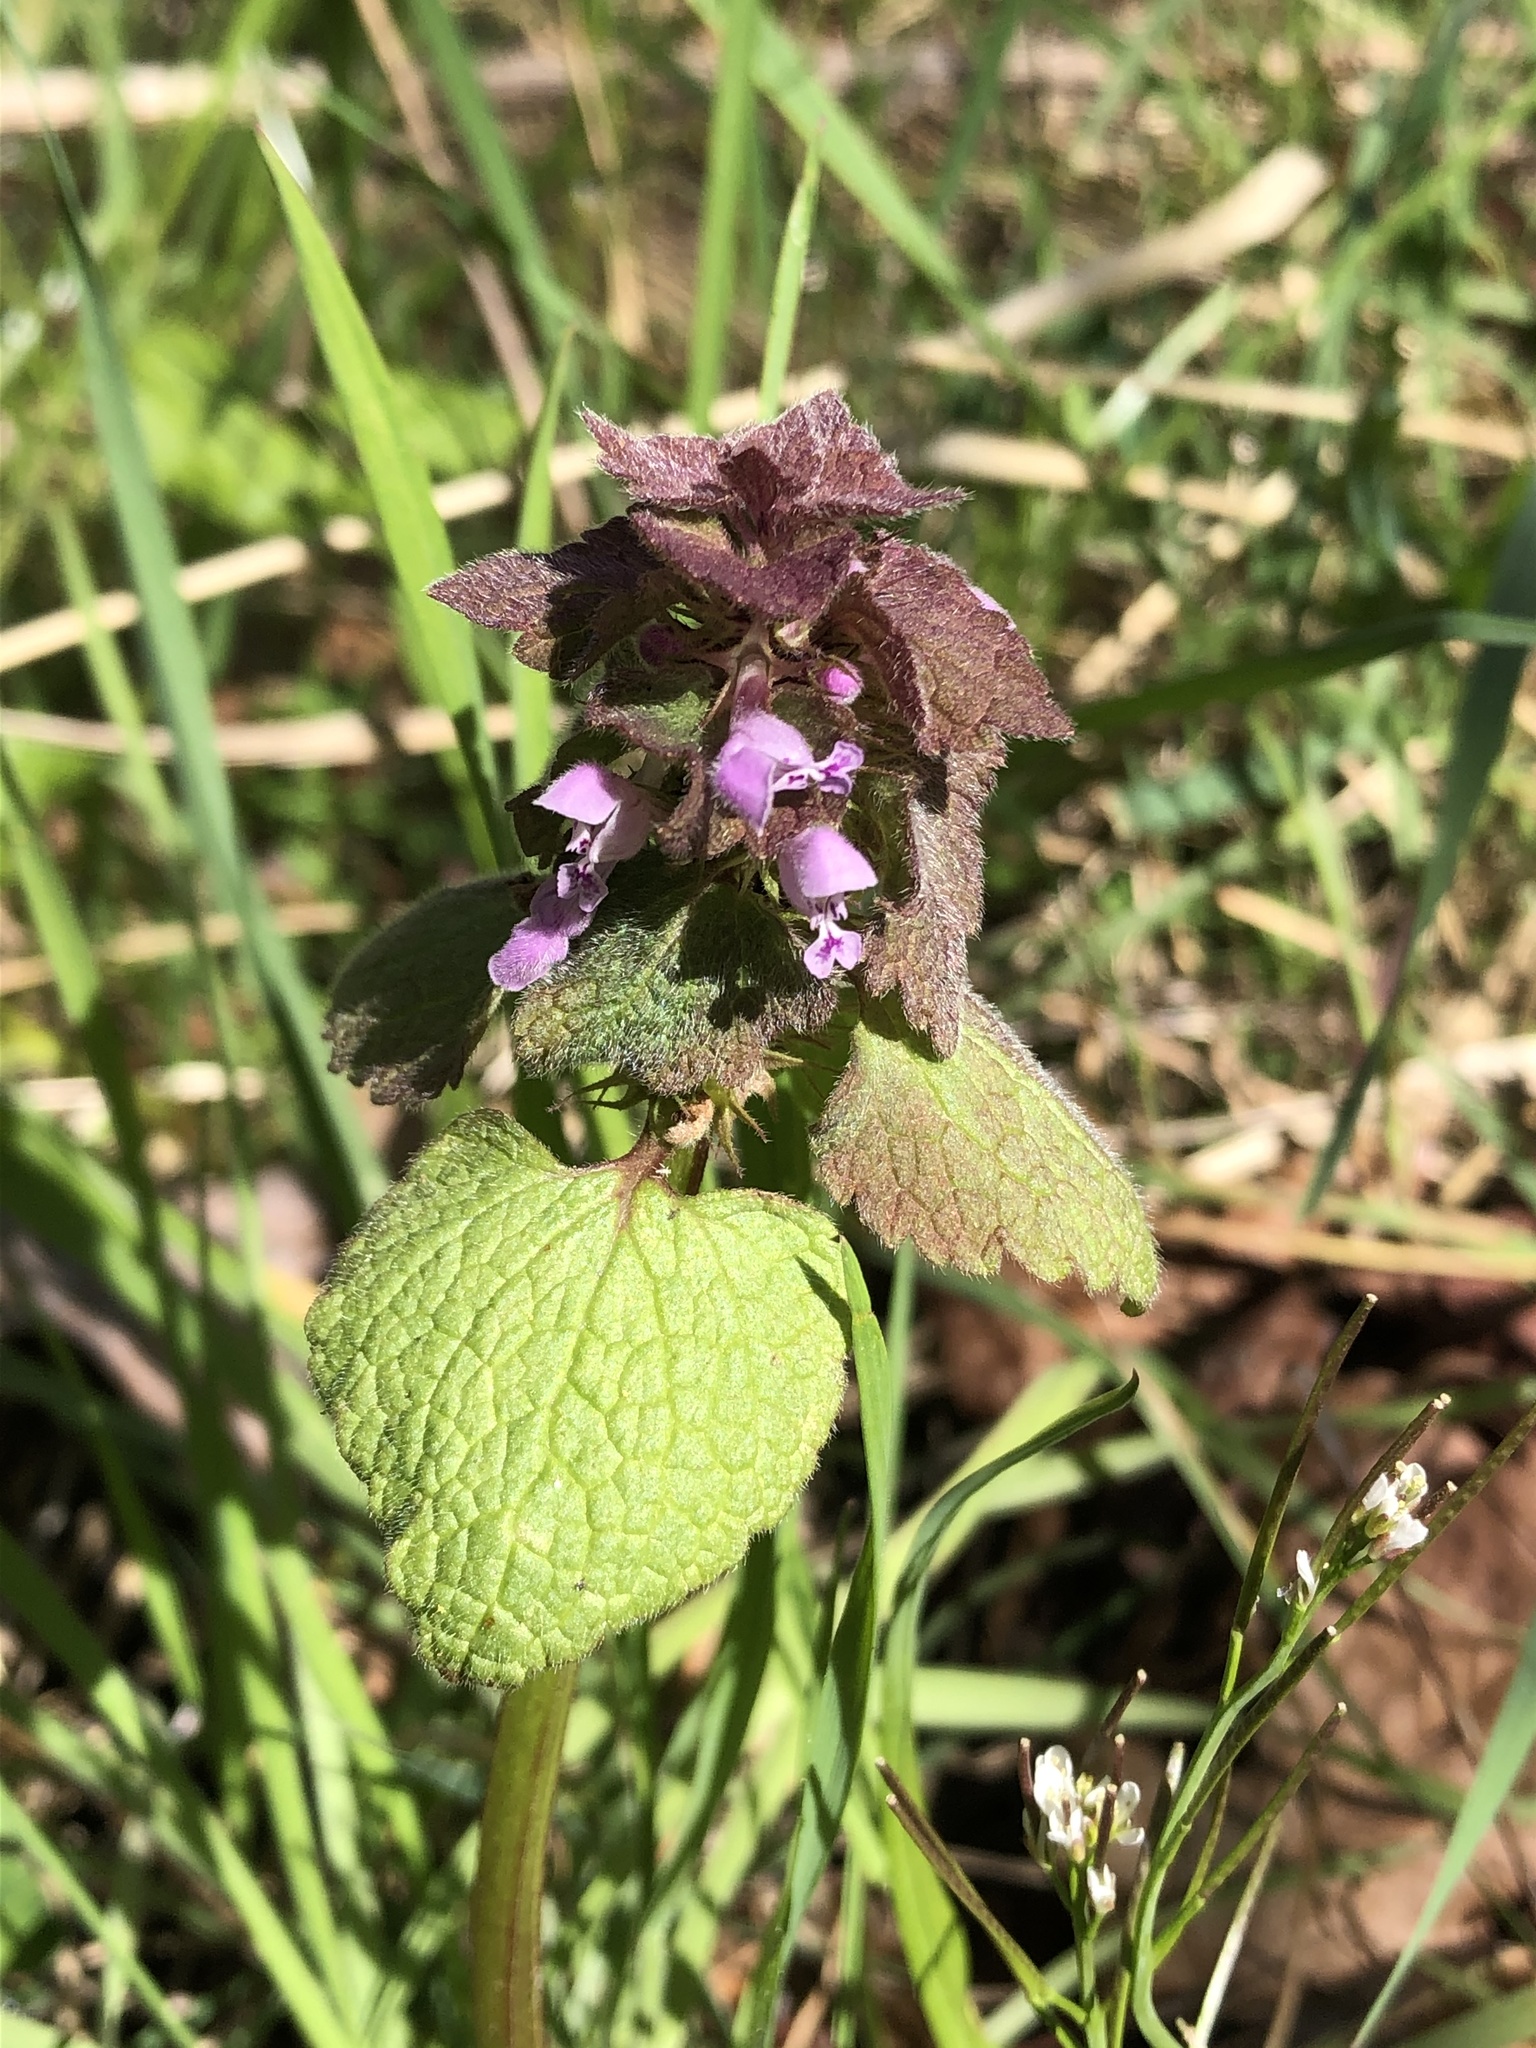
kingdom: Plantae
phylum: Tracheophyta
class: Magnoliopsida
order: Lamiales
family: Lamiaceae
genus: Lamium
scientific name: Lamium purpureum
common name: Red dead-nettle
